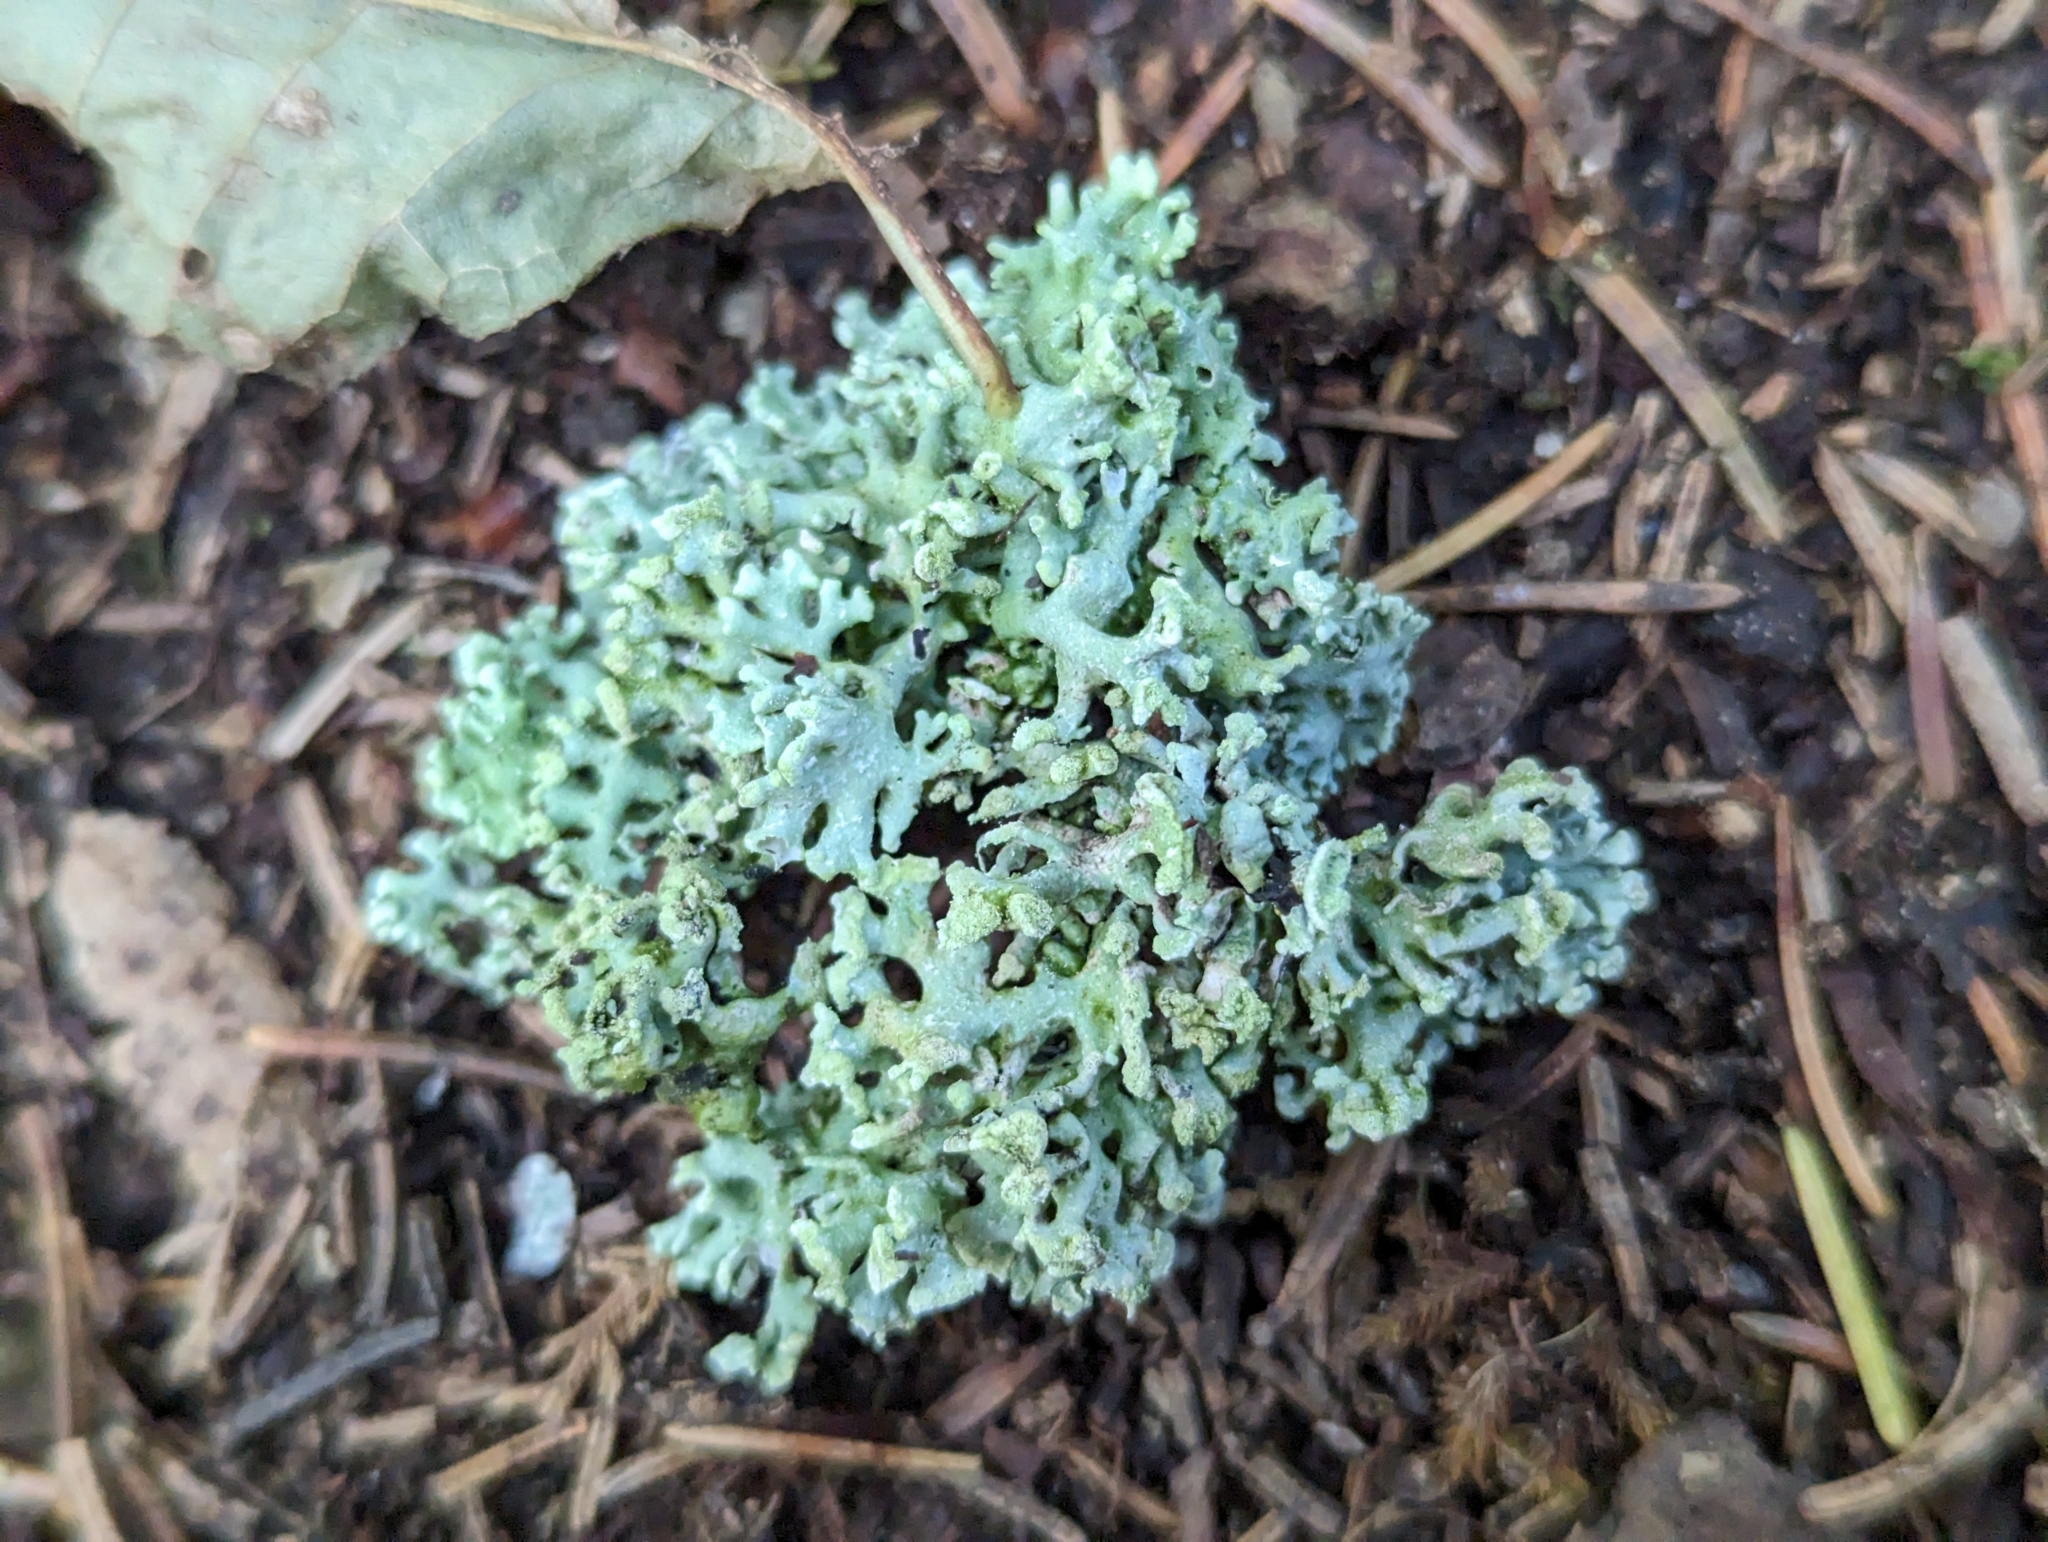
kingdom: Fungi
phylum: Ascomycota
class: Lecanoromycetes
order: Lecanorales
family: Parmeliaceae
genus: Hypogymnia
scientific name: Hypogymnia tubulosa
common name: Powder-headed tube lichen
